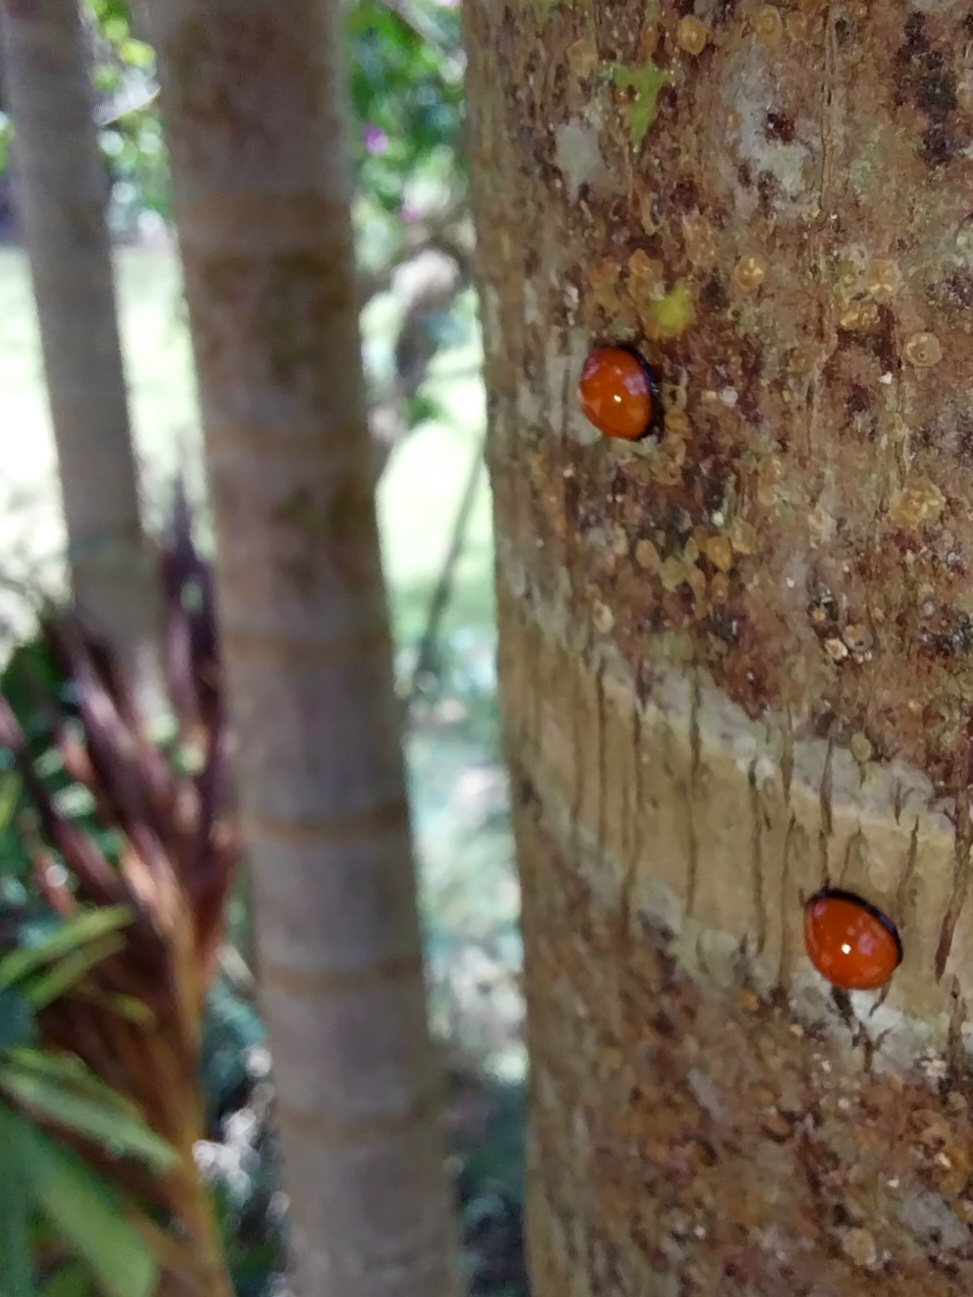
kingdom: Animalia
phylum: Arthropoda
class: Insecta
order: Coleoptera
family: Coccinellidae
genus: Chilocorus
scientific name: Chilocorus circumdatus
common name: Lady beetle
